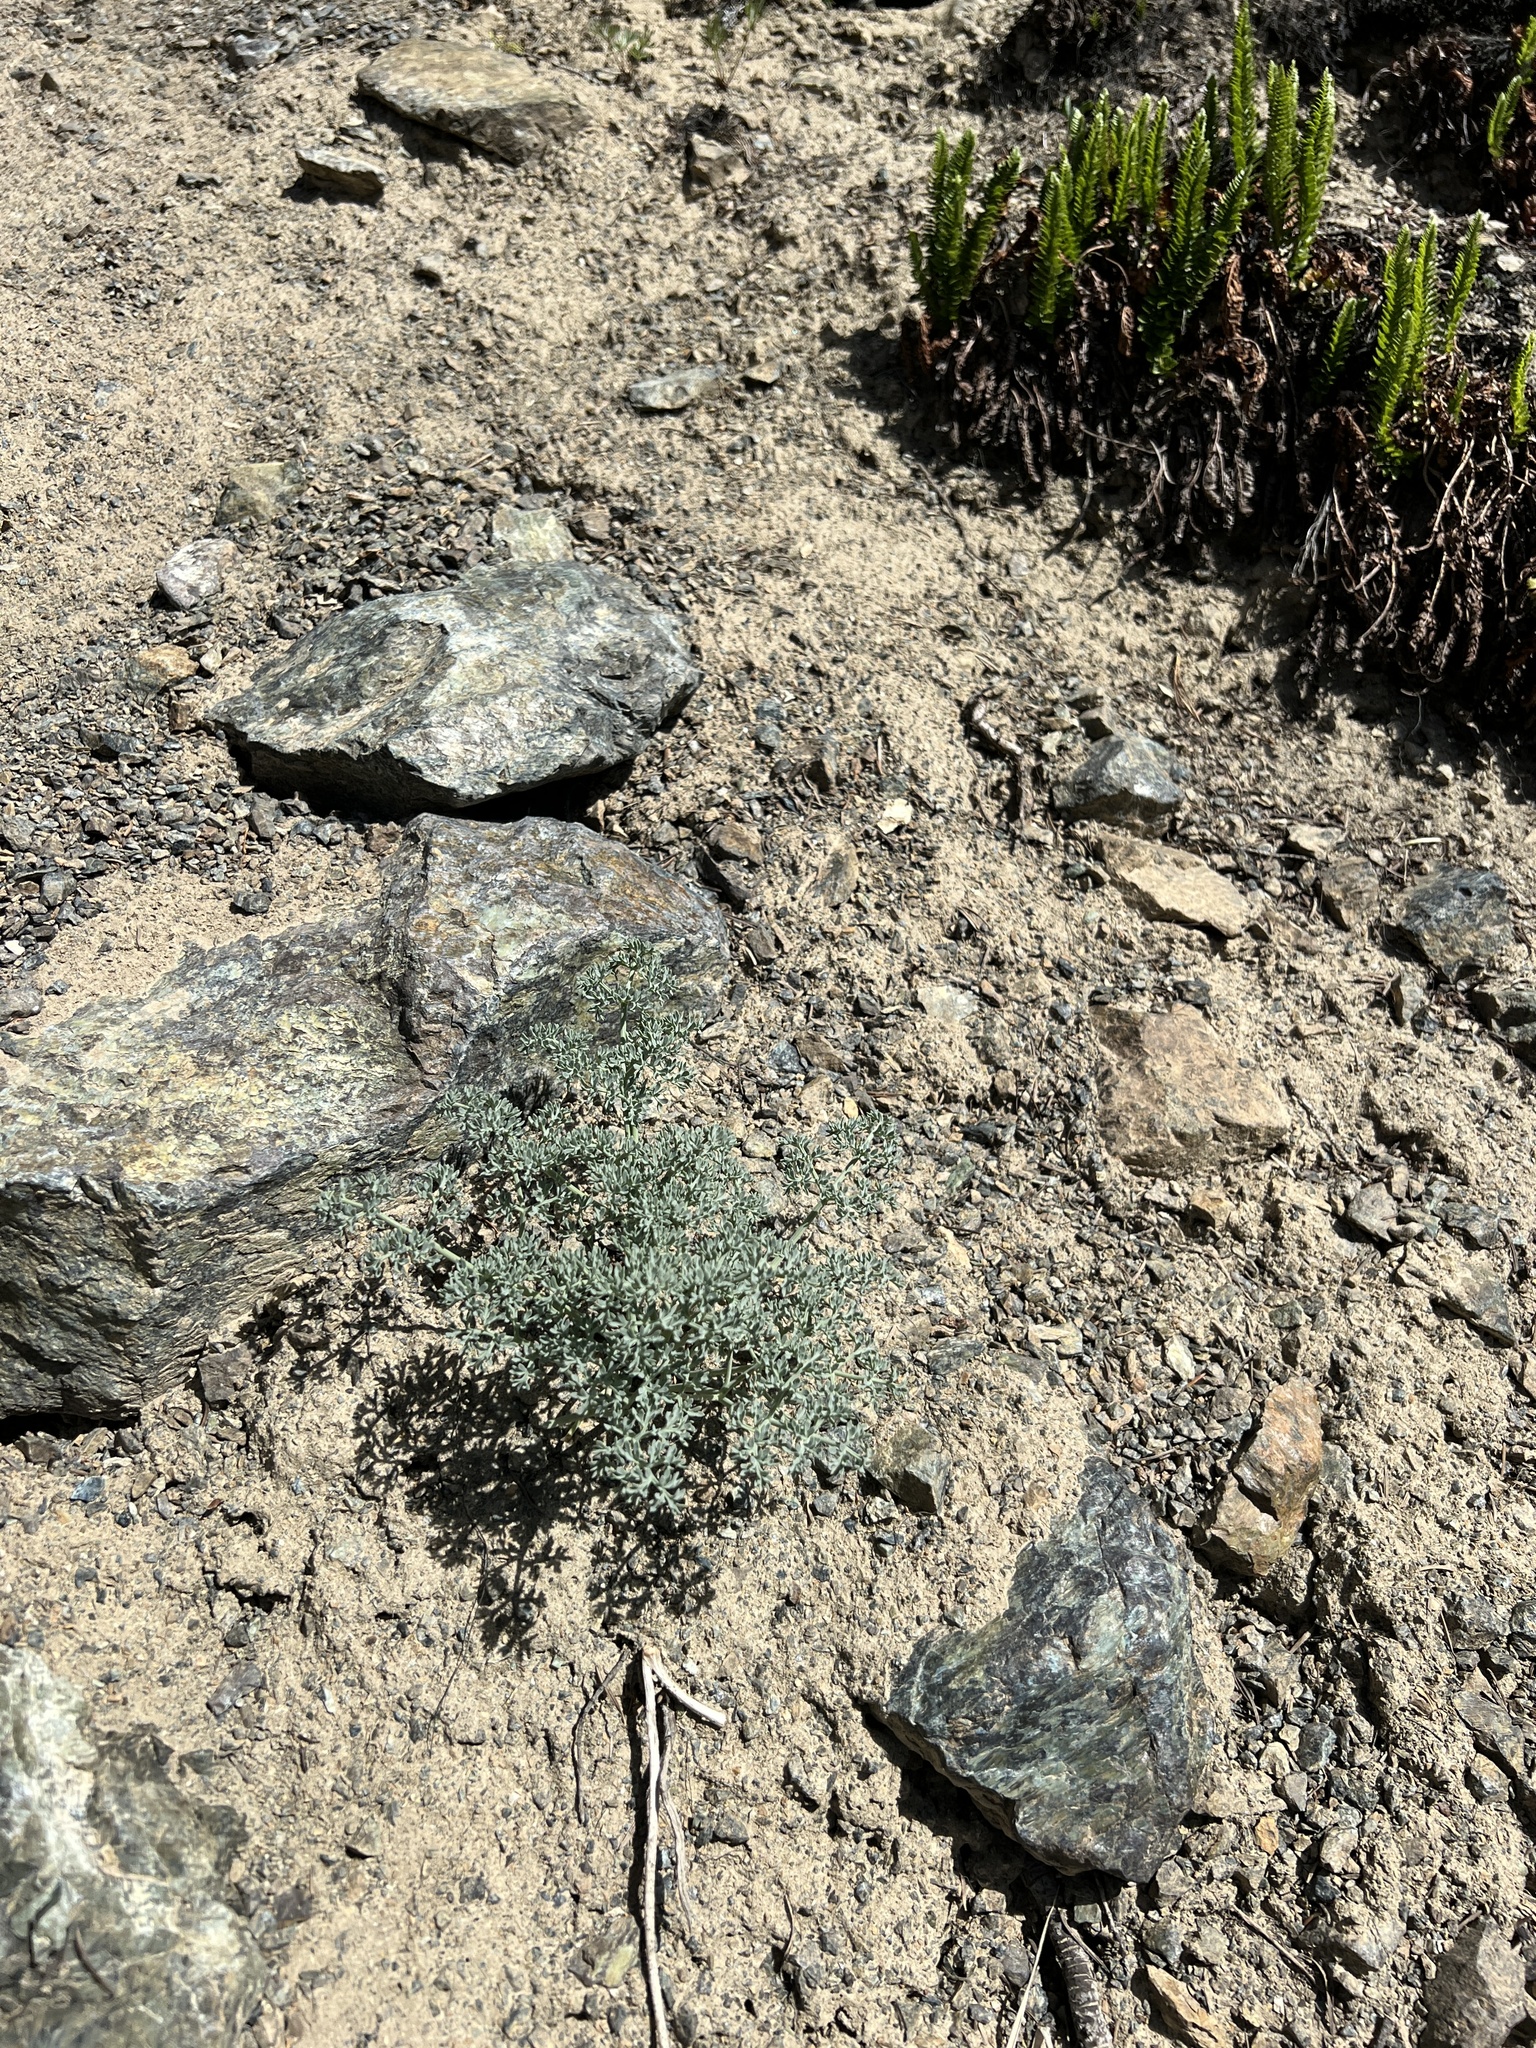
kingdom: Plantae
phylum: Tracheophyta
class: Magnoliopsida
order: Apiales
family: Apiaceae
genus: Lomatium
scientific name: Lomatium cuspidatum
